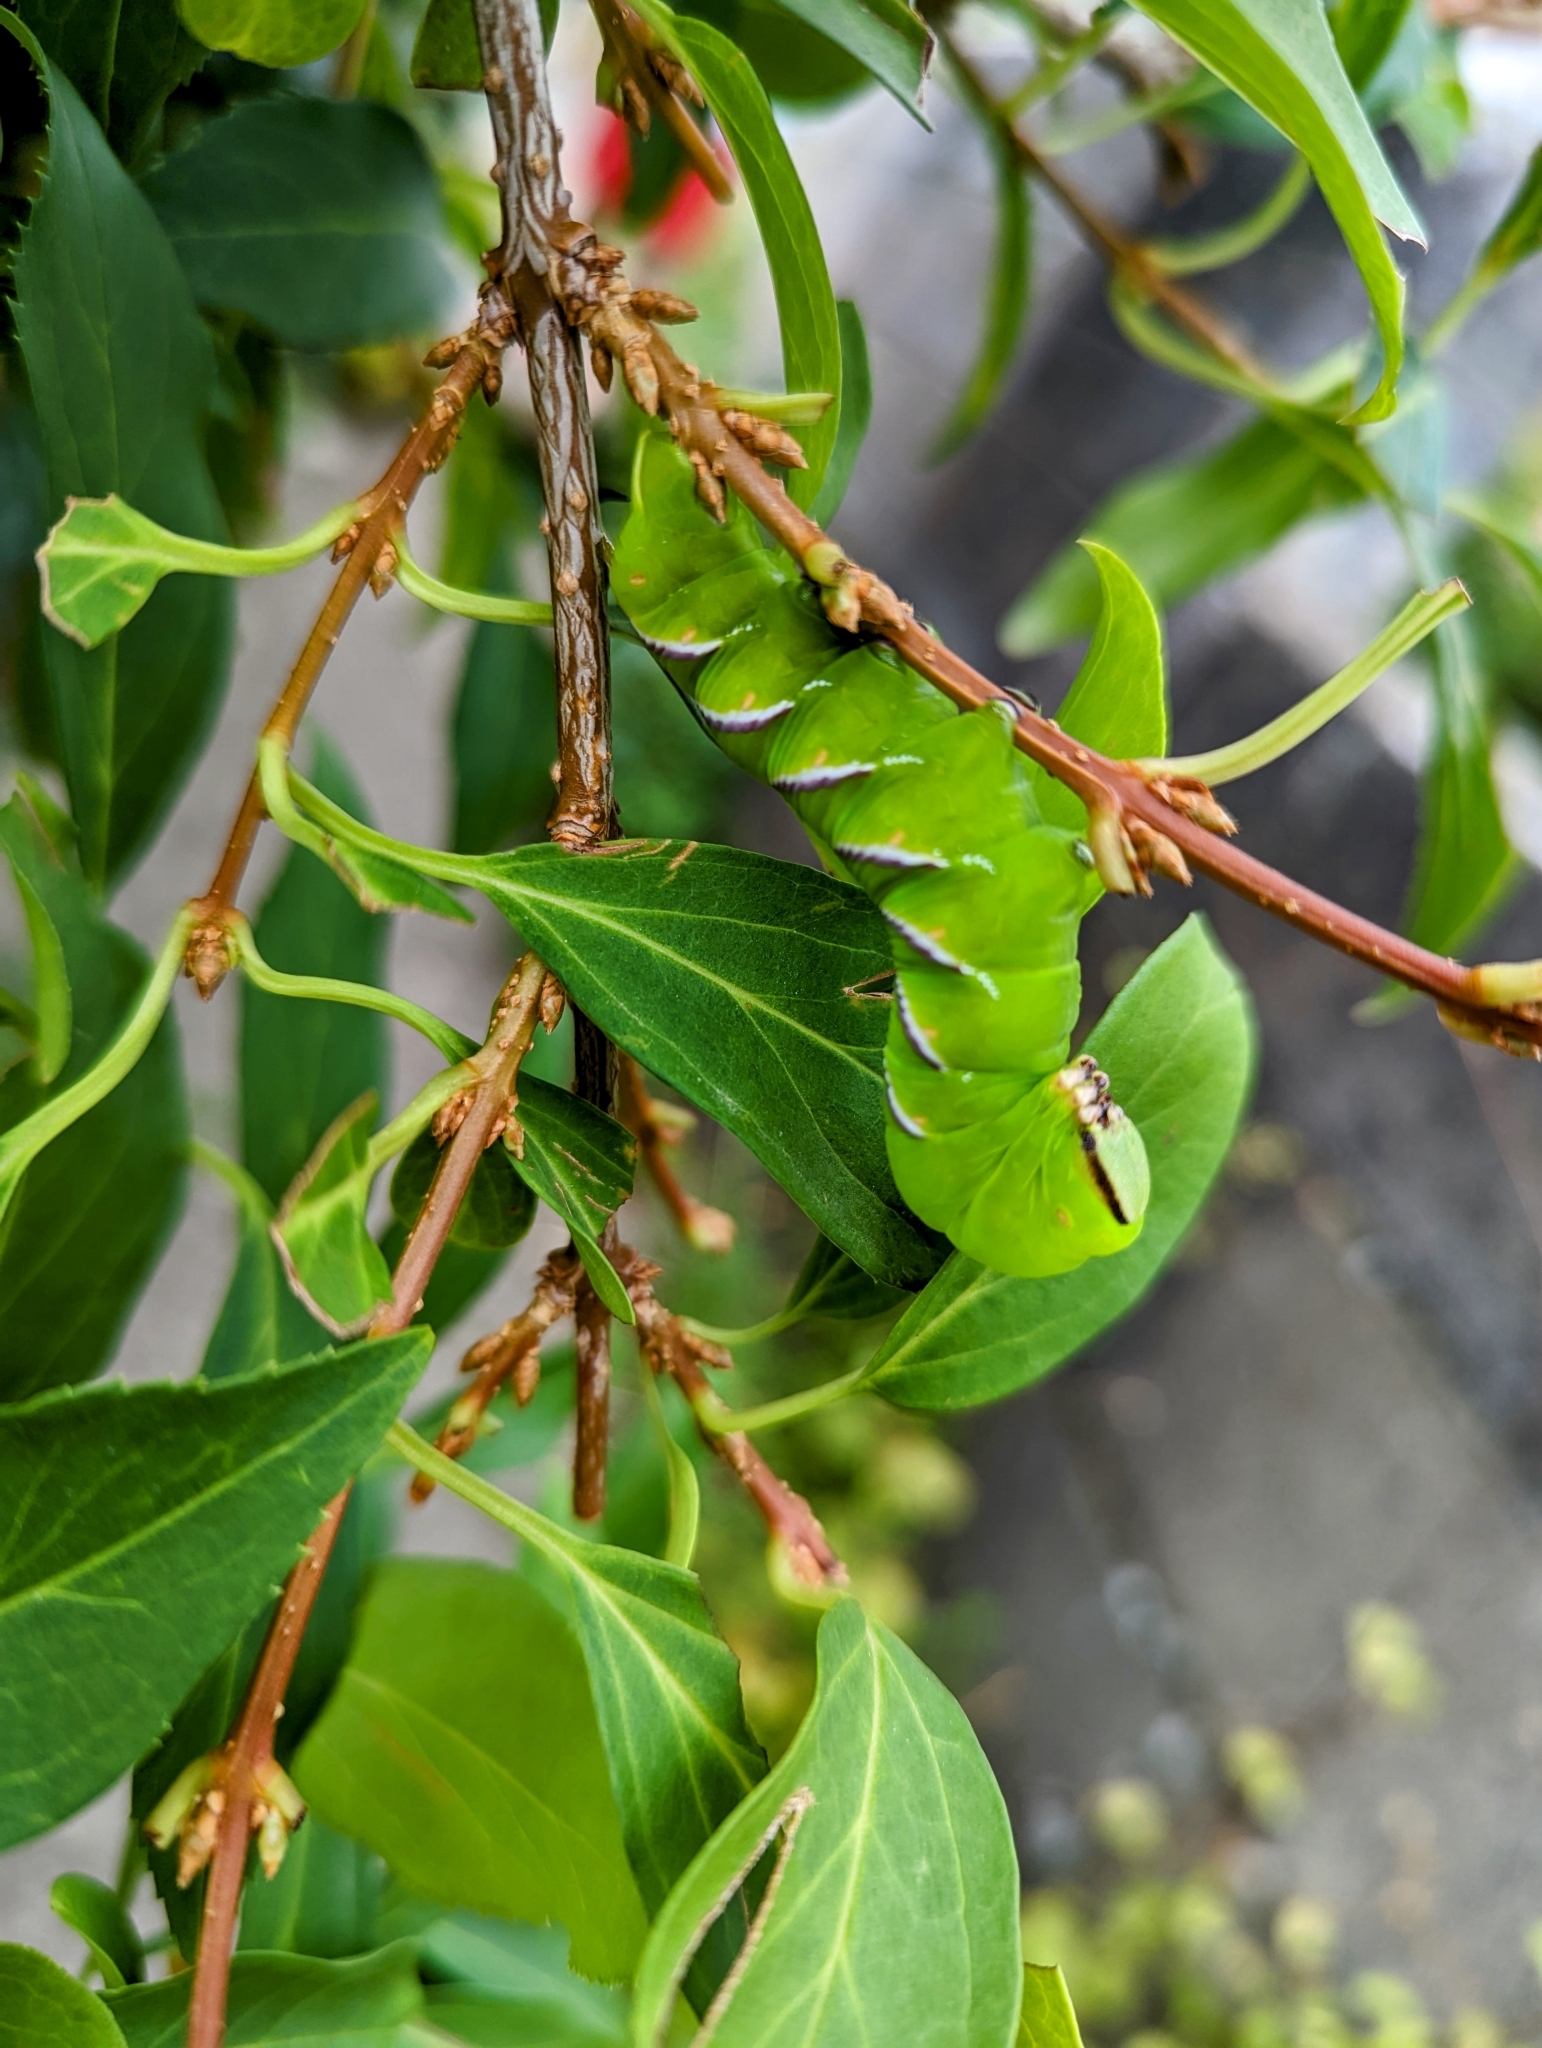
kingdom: Animalia
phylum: Arthropoda
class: Insecta
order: Lepidoptera
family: Sphingidae
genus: Sphinx
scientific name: Sphinx ligustri
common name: Privet hawk-moth
